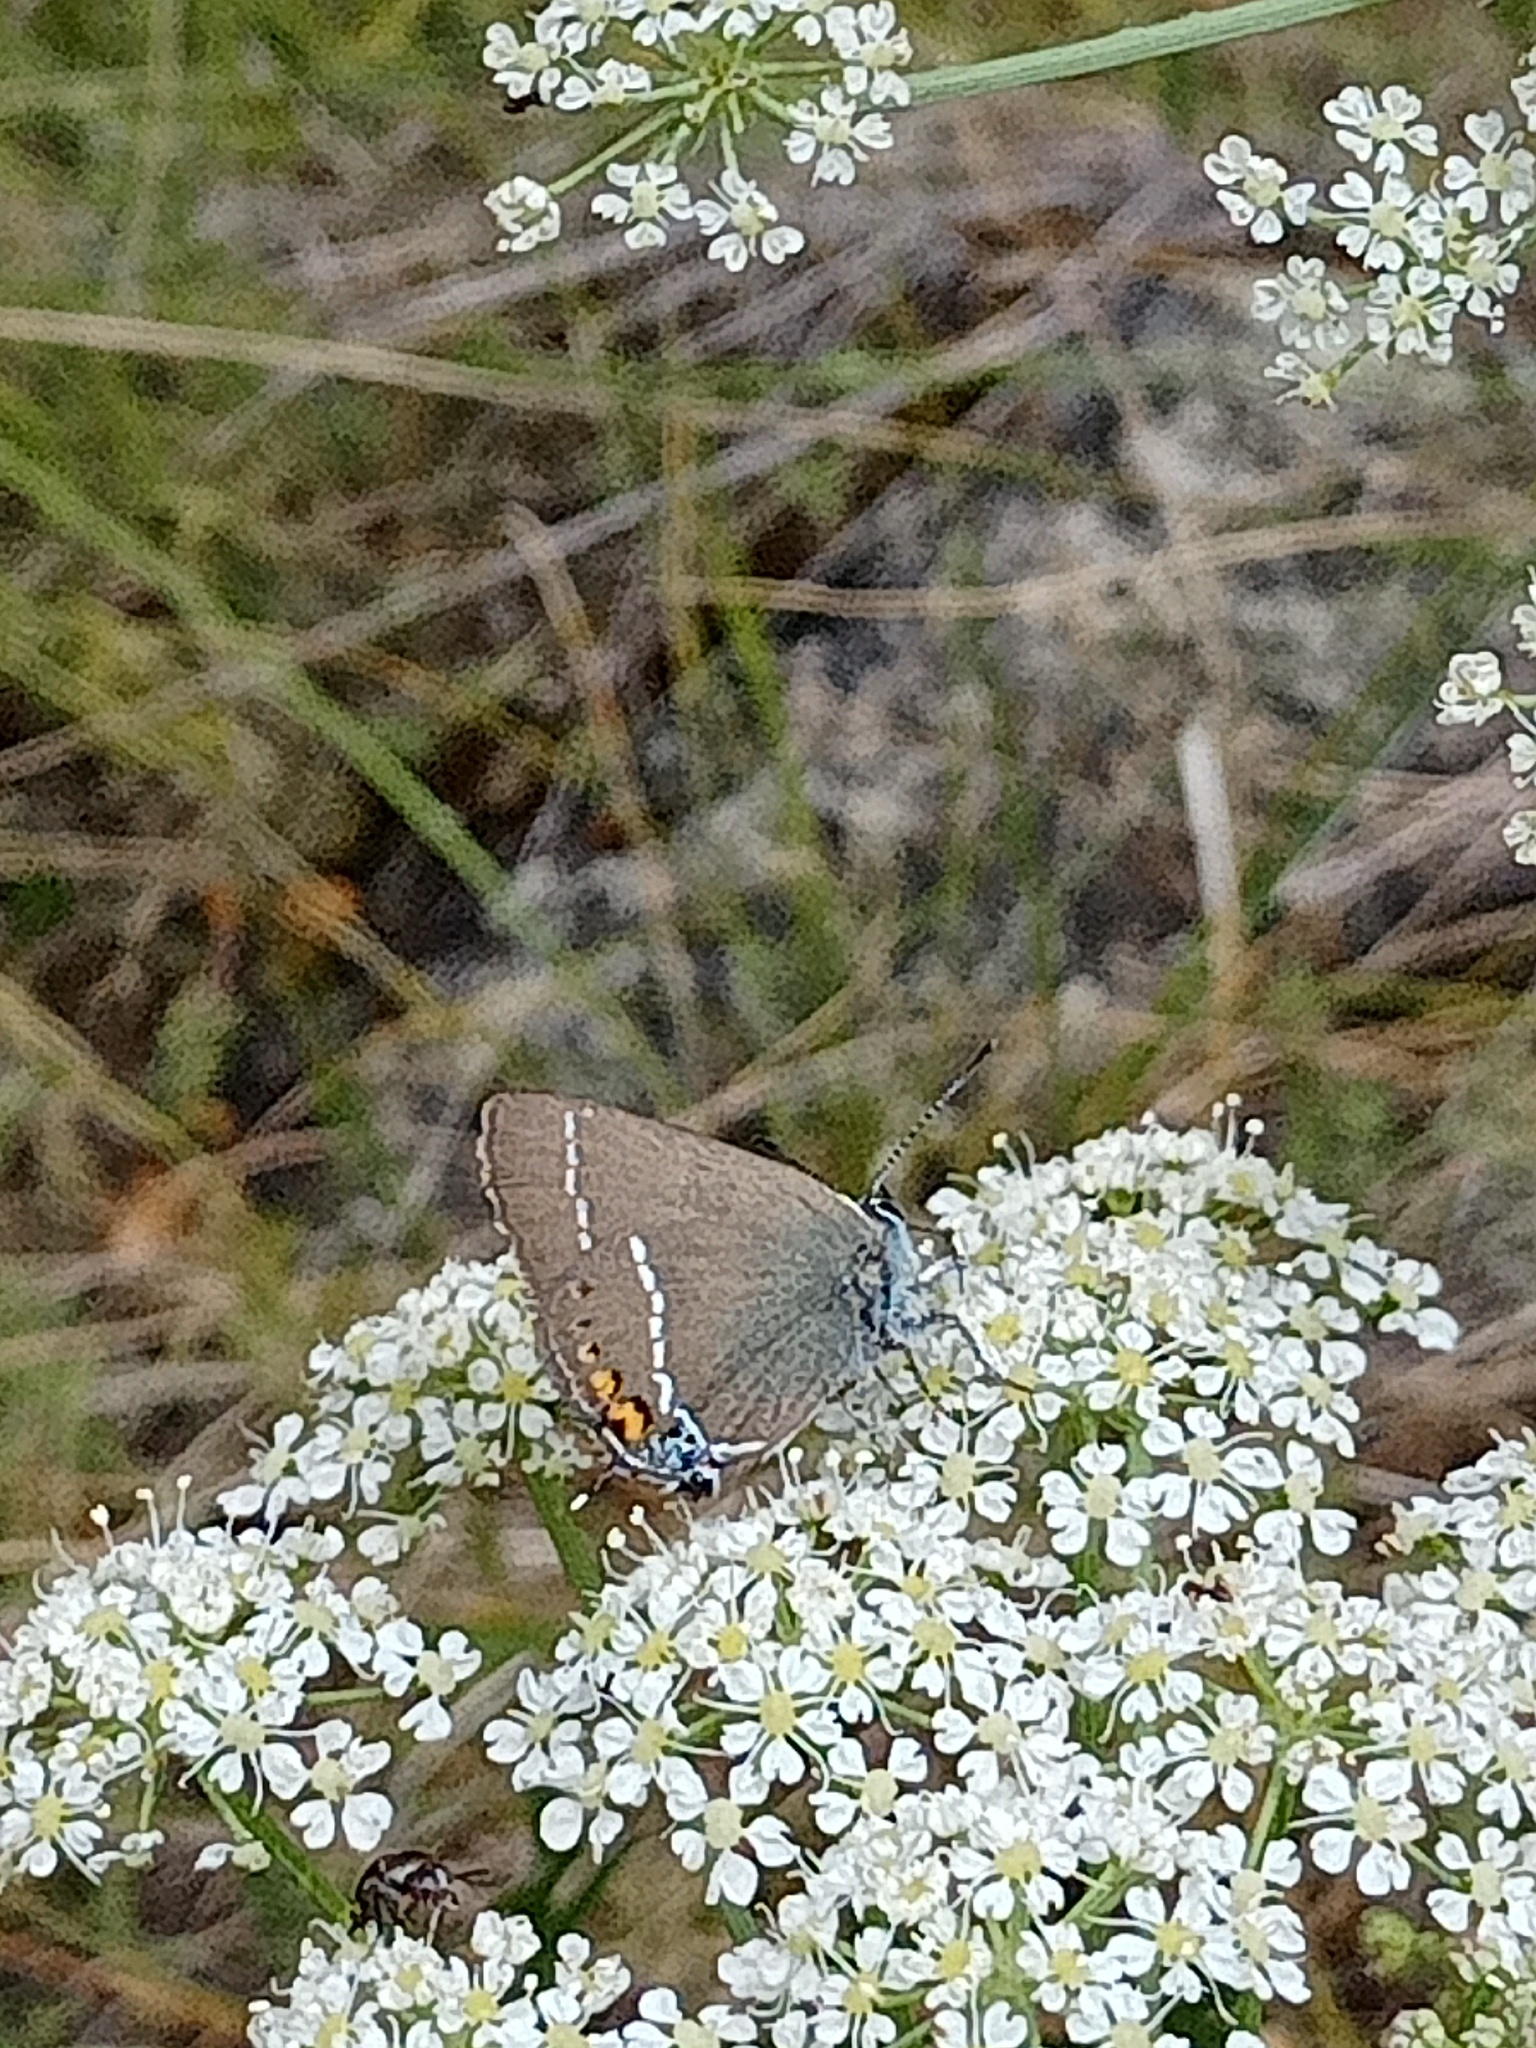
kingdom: Animalia
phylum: Arthropoda
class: Insecta
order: Lepidoptera
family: Lycaenidae
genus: Tuttiola
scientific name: Tuttiola spini
